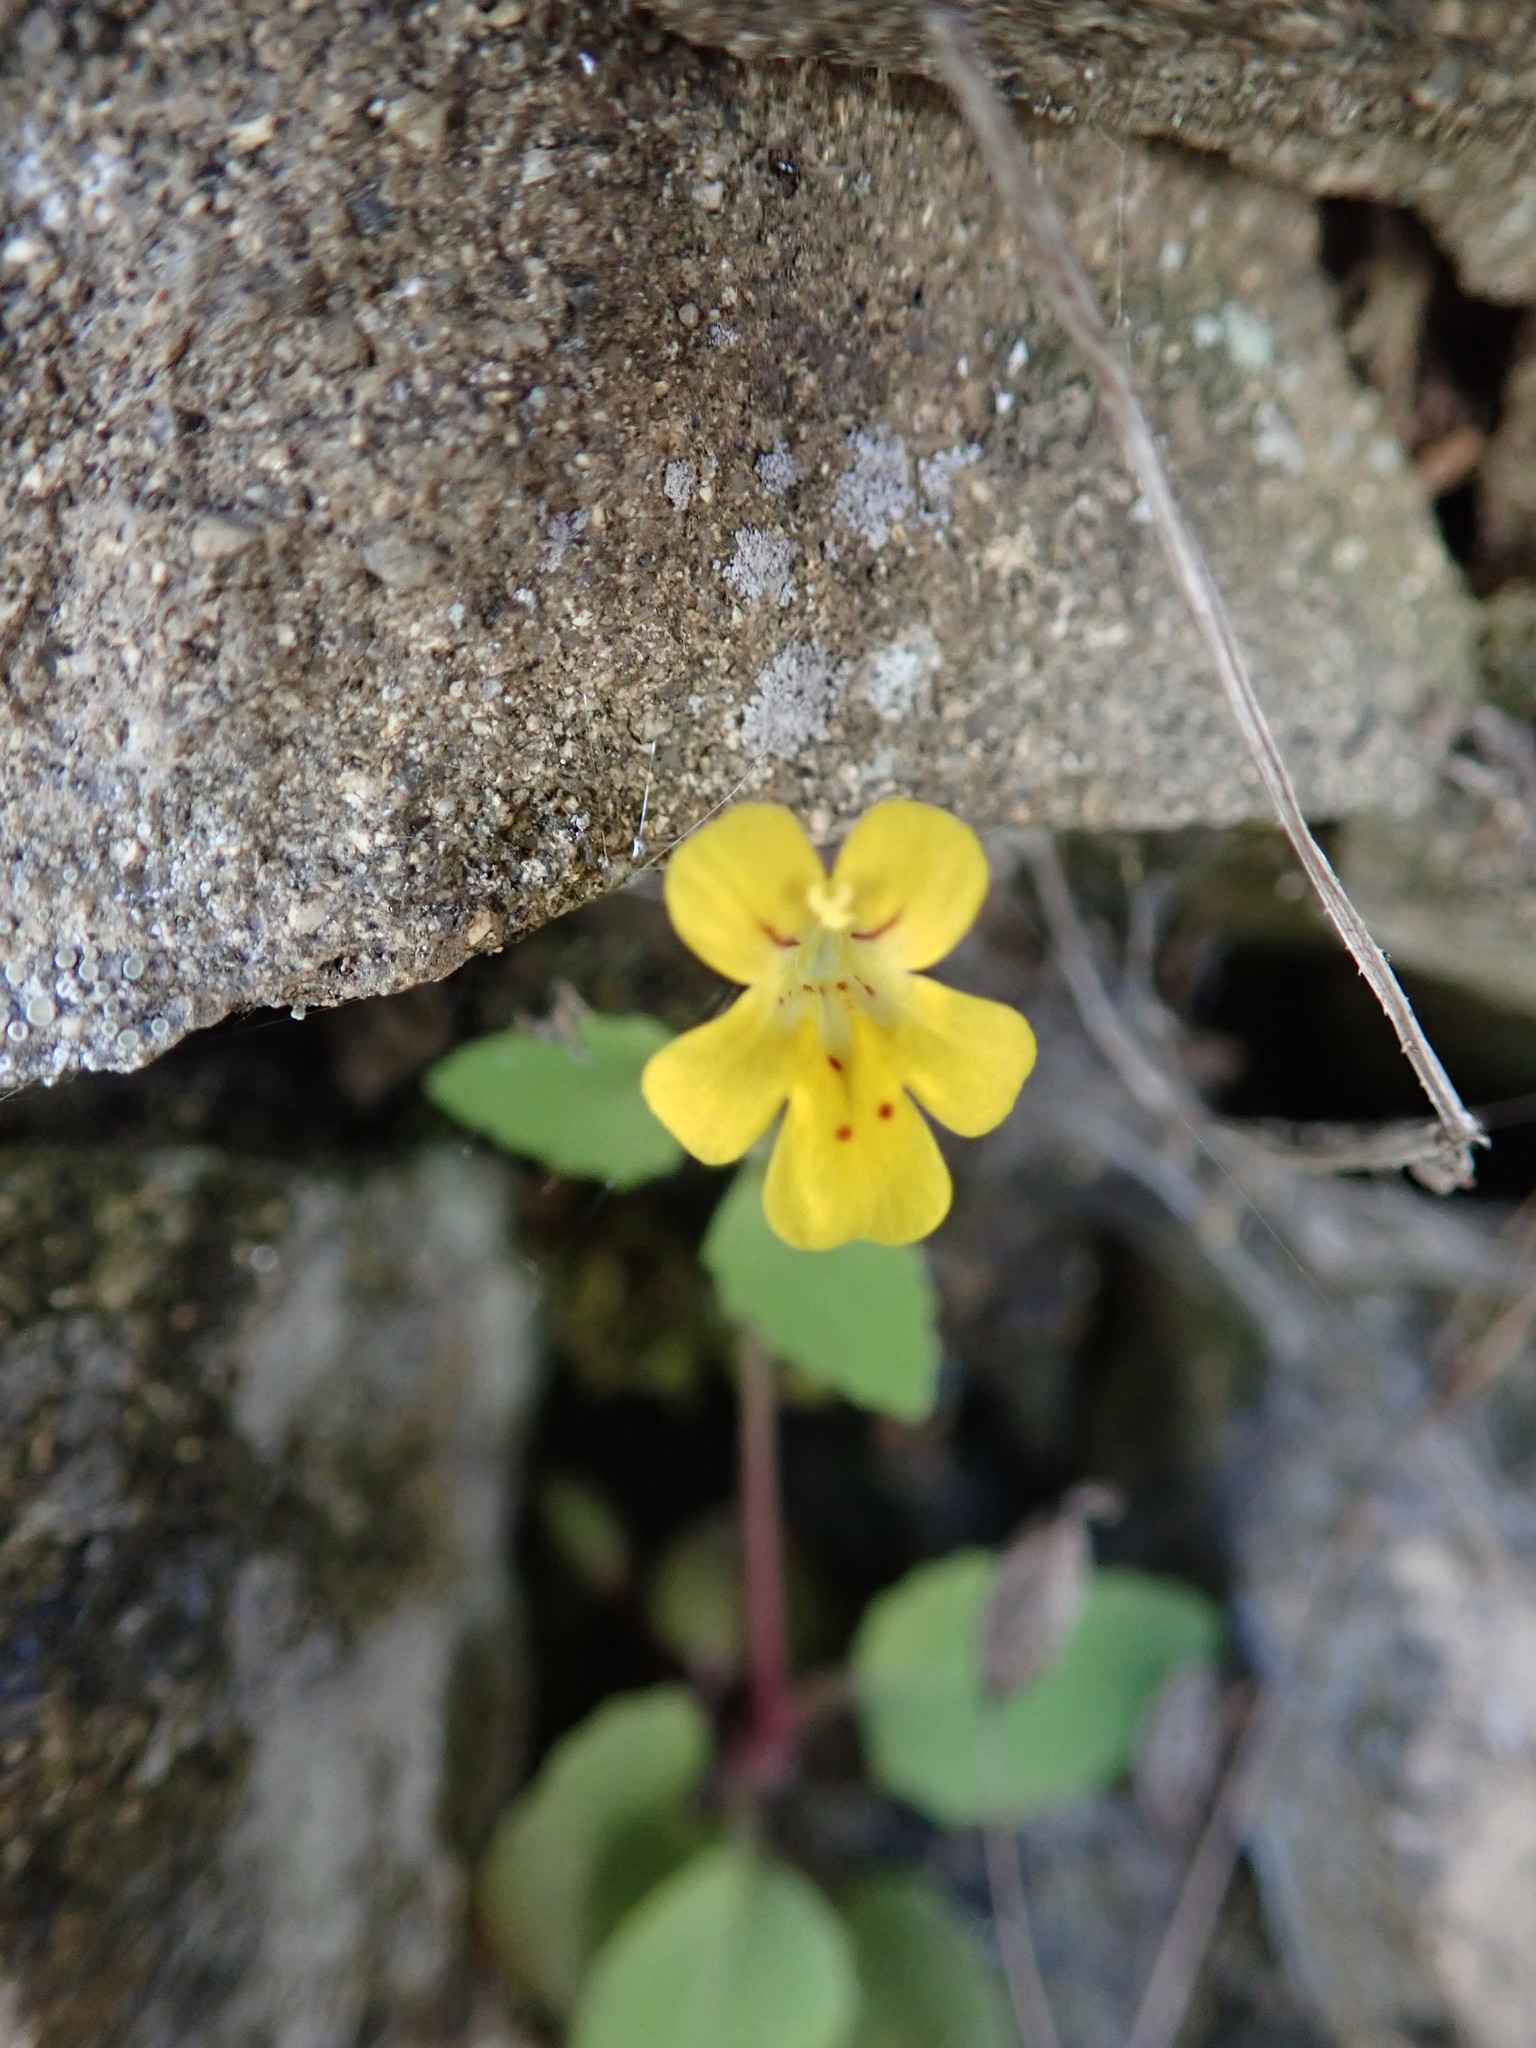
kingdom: Plantae
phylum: Tracheophyta
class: Magnoliopsida
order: Lamiales
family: Phrymaceae
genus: Erythranthe
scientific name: Erythranthe alsinoides
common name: Chickweed monkeyflower
